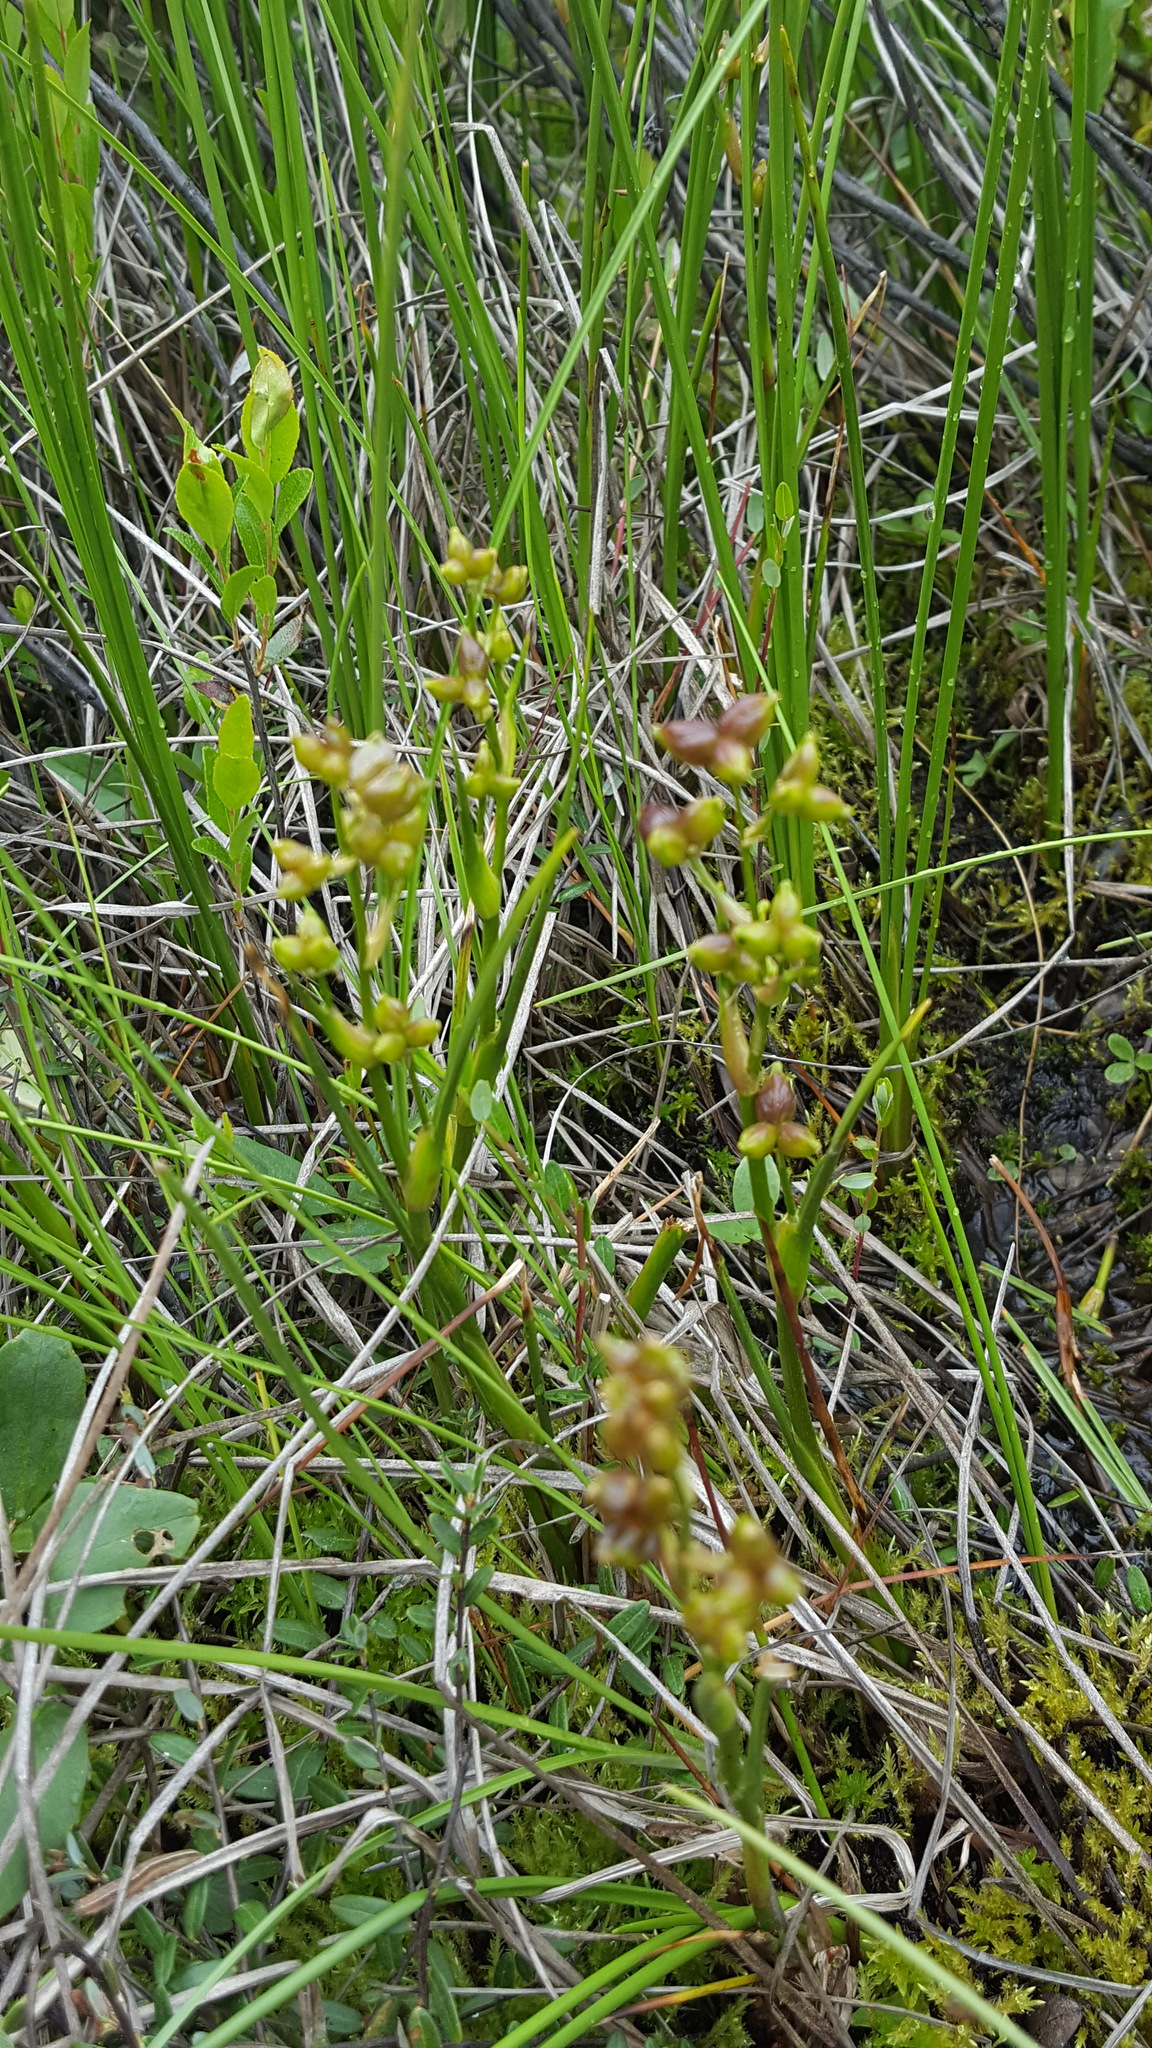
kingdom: Plantae
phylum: Tracheophyta
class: Liliopsida
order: Alismatales
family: Scheuchzeriaceae
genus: Scheuchzeria
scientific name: Scheuchzeria palustris
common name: Rannoch-rush
